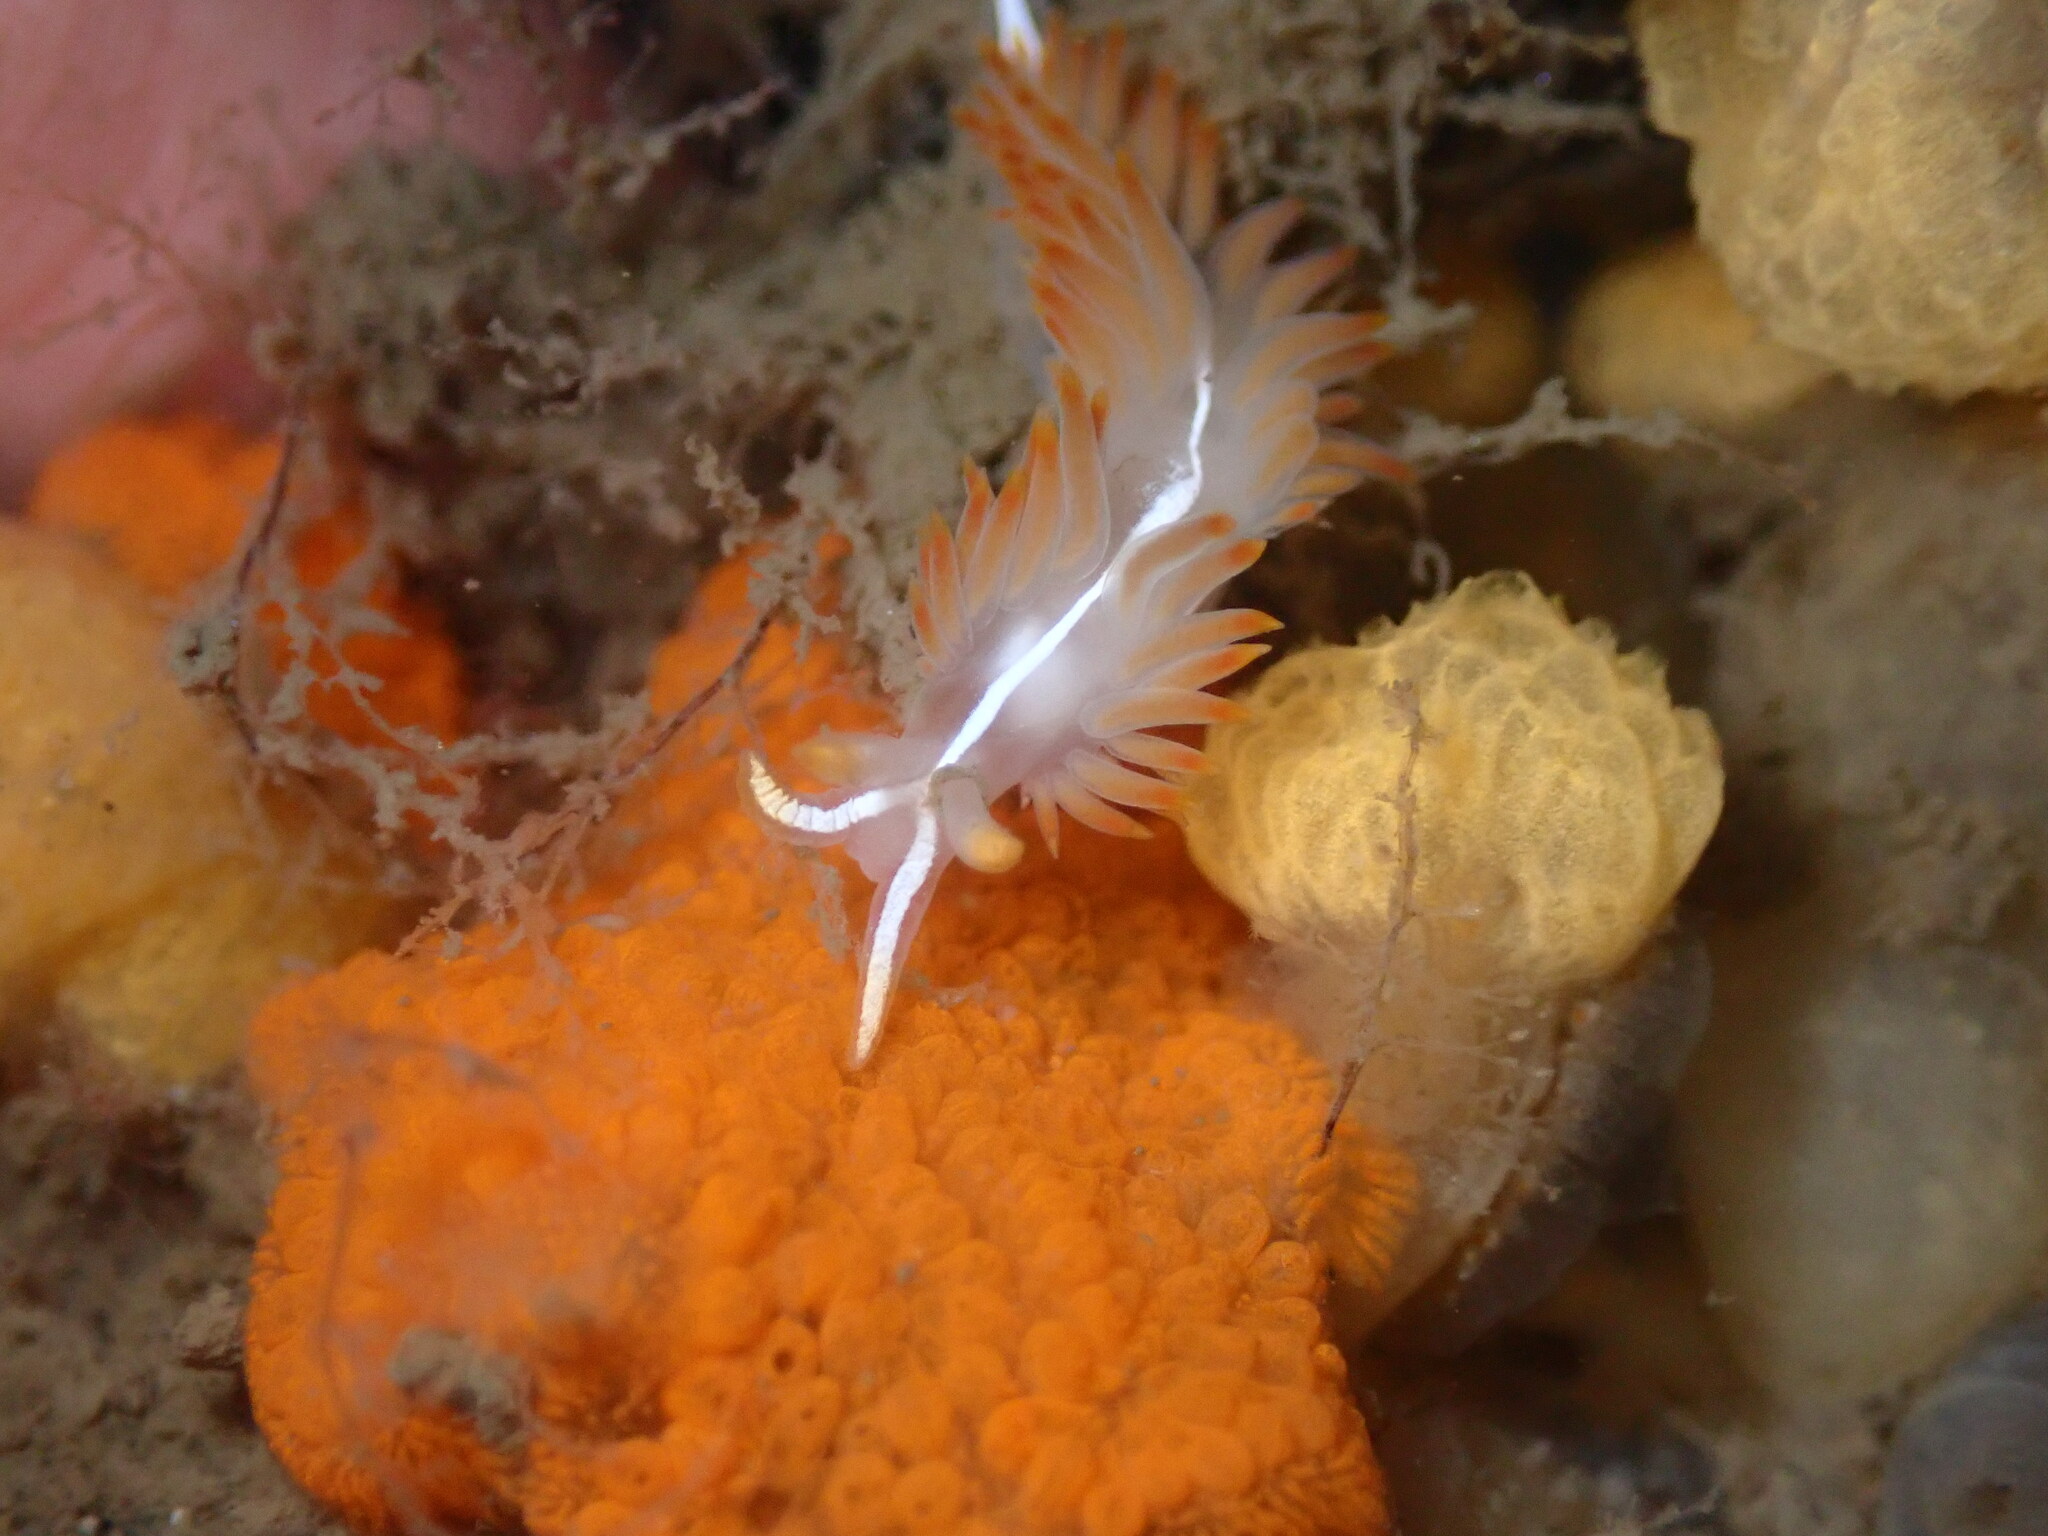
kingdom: Animalia
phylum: Mollusca
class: Gastropoda
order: Nudibranchia
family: Coryphellidae
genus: Coryphella
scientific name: Coryphella trilineata
